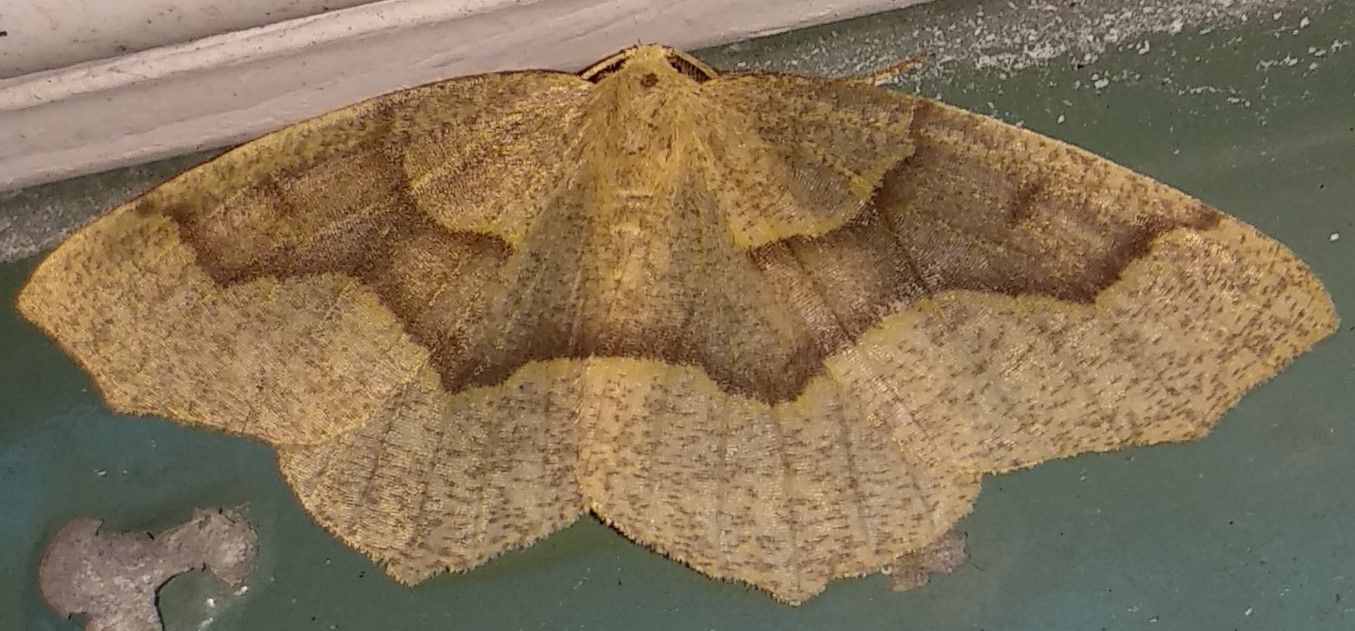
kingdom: Animalia
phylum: Arthropoda
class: Insecta
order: Lepidoptera
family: Geometridae
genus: Lambdina
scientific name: Lambdina fiscellaria
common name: Hemlock looper
